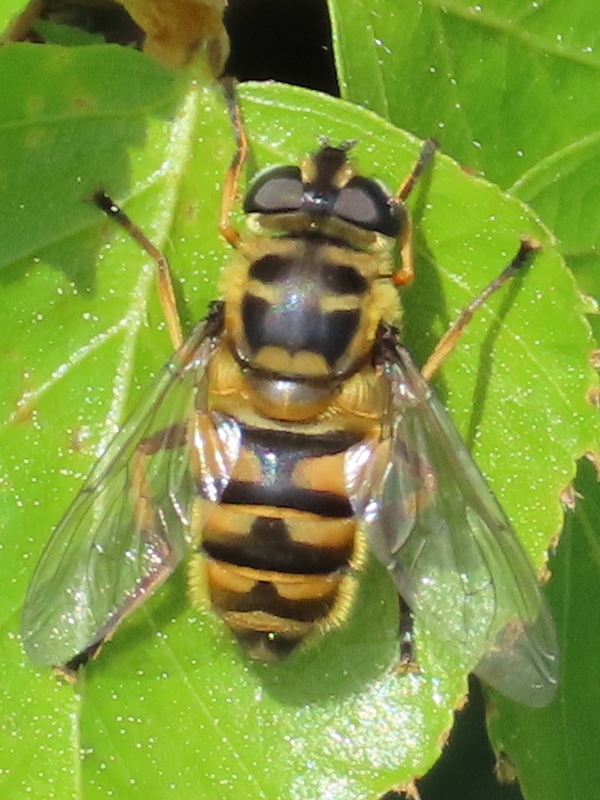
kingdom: Animalia
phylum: Arthropoda
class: Insecta
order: Diptera
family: Syrphidae
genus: Myathropa
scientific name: Myathropa florea
